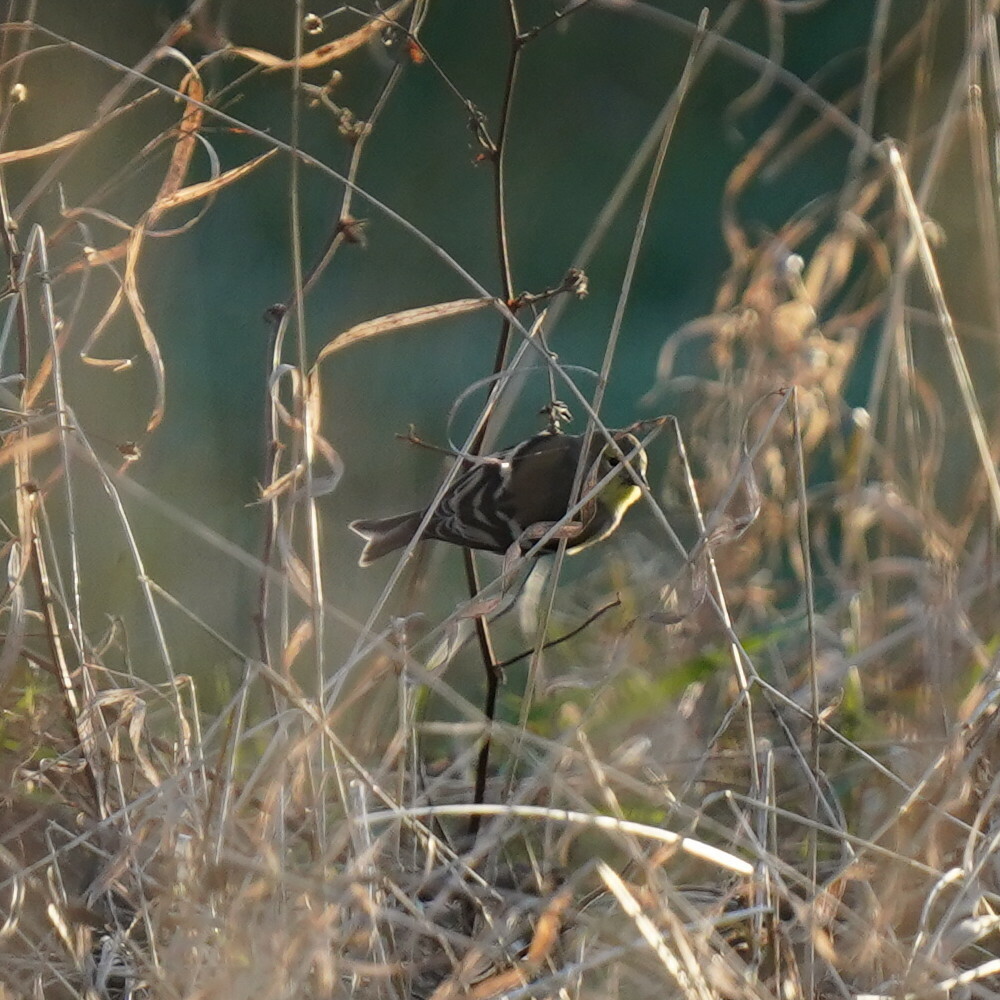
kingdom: Animalia
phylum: Chordata
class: Aves
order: Passeriformes
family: Fringillidae
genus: Spinus
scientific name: Spinus tristis
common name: American goldfinch
